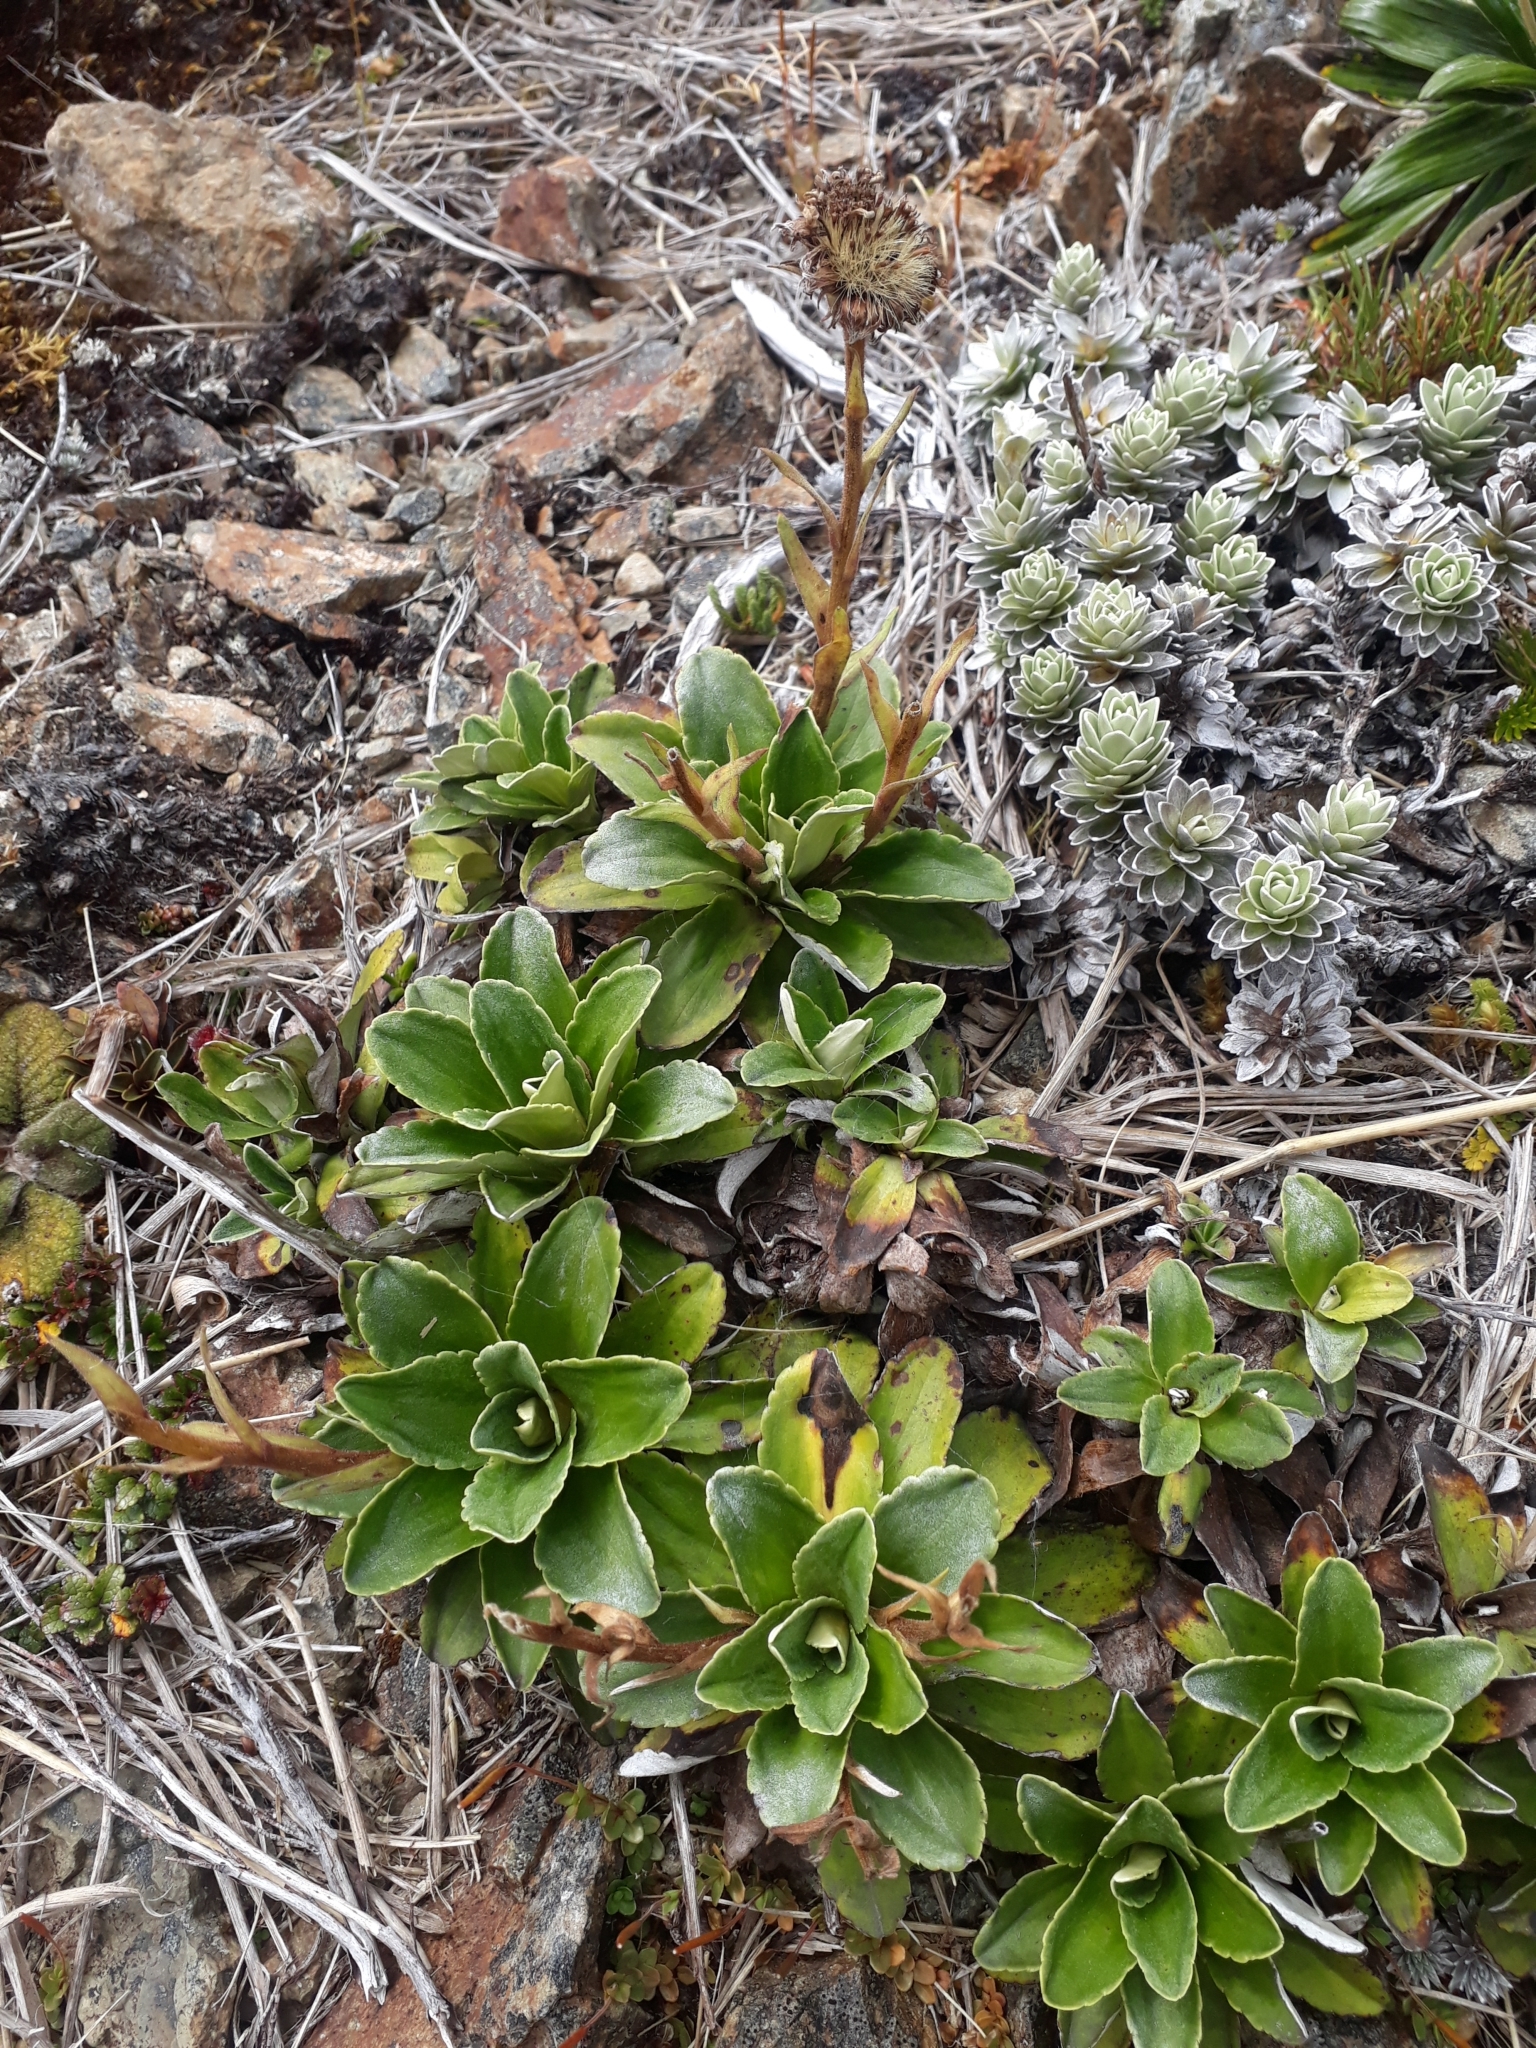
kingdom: Plantae
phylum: Tracheophyta
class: Magnoliopsida
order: Asterales
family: Asteraceae
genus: Celmisia
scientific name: Celmisia hieraciifolia
